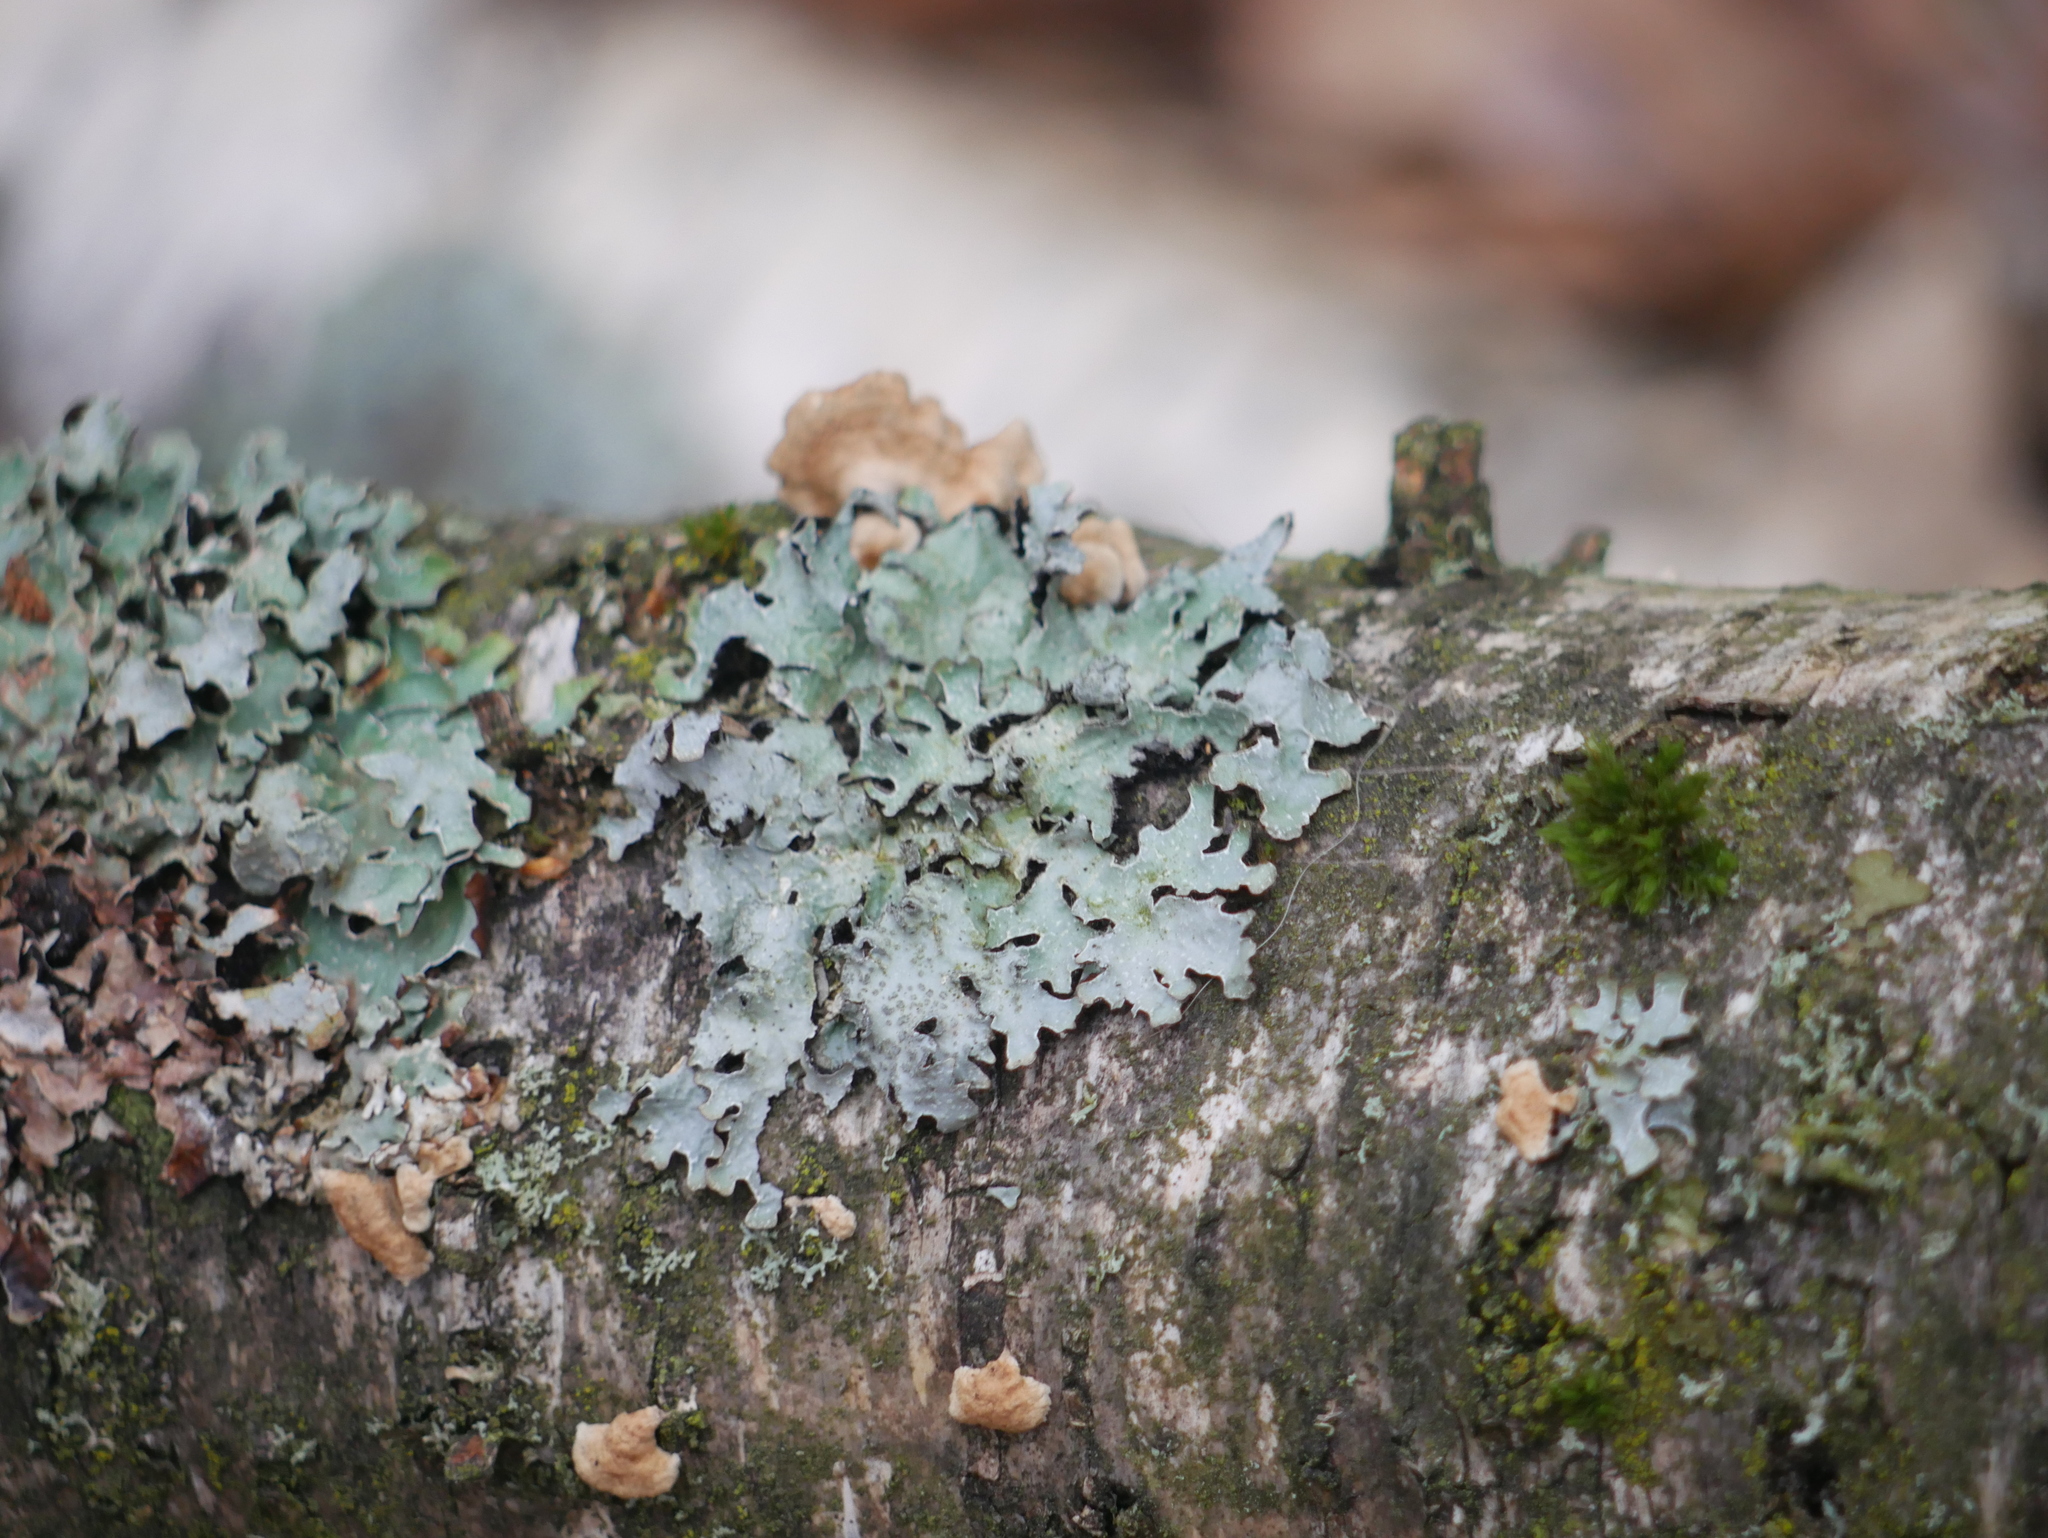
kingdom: Fungi
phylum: Ascomycota
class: Lecanoromycetes
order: Lecanorales
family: Parmeliaceae
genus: Parmelia
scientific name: Parmelia sulcata
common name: Netted shield lichen
